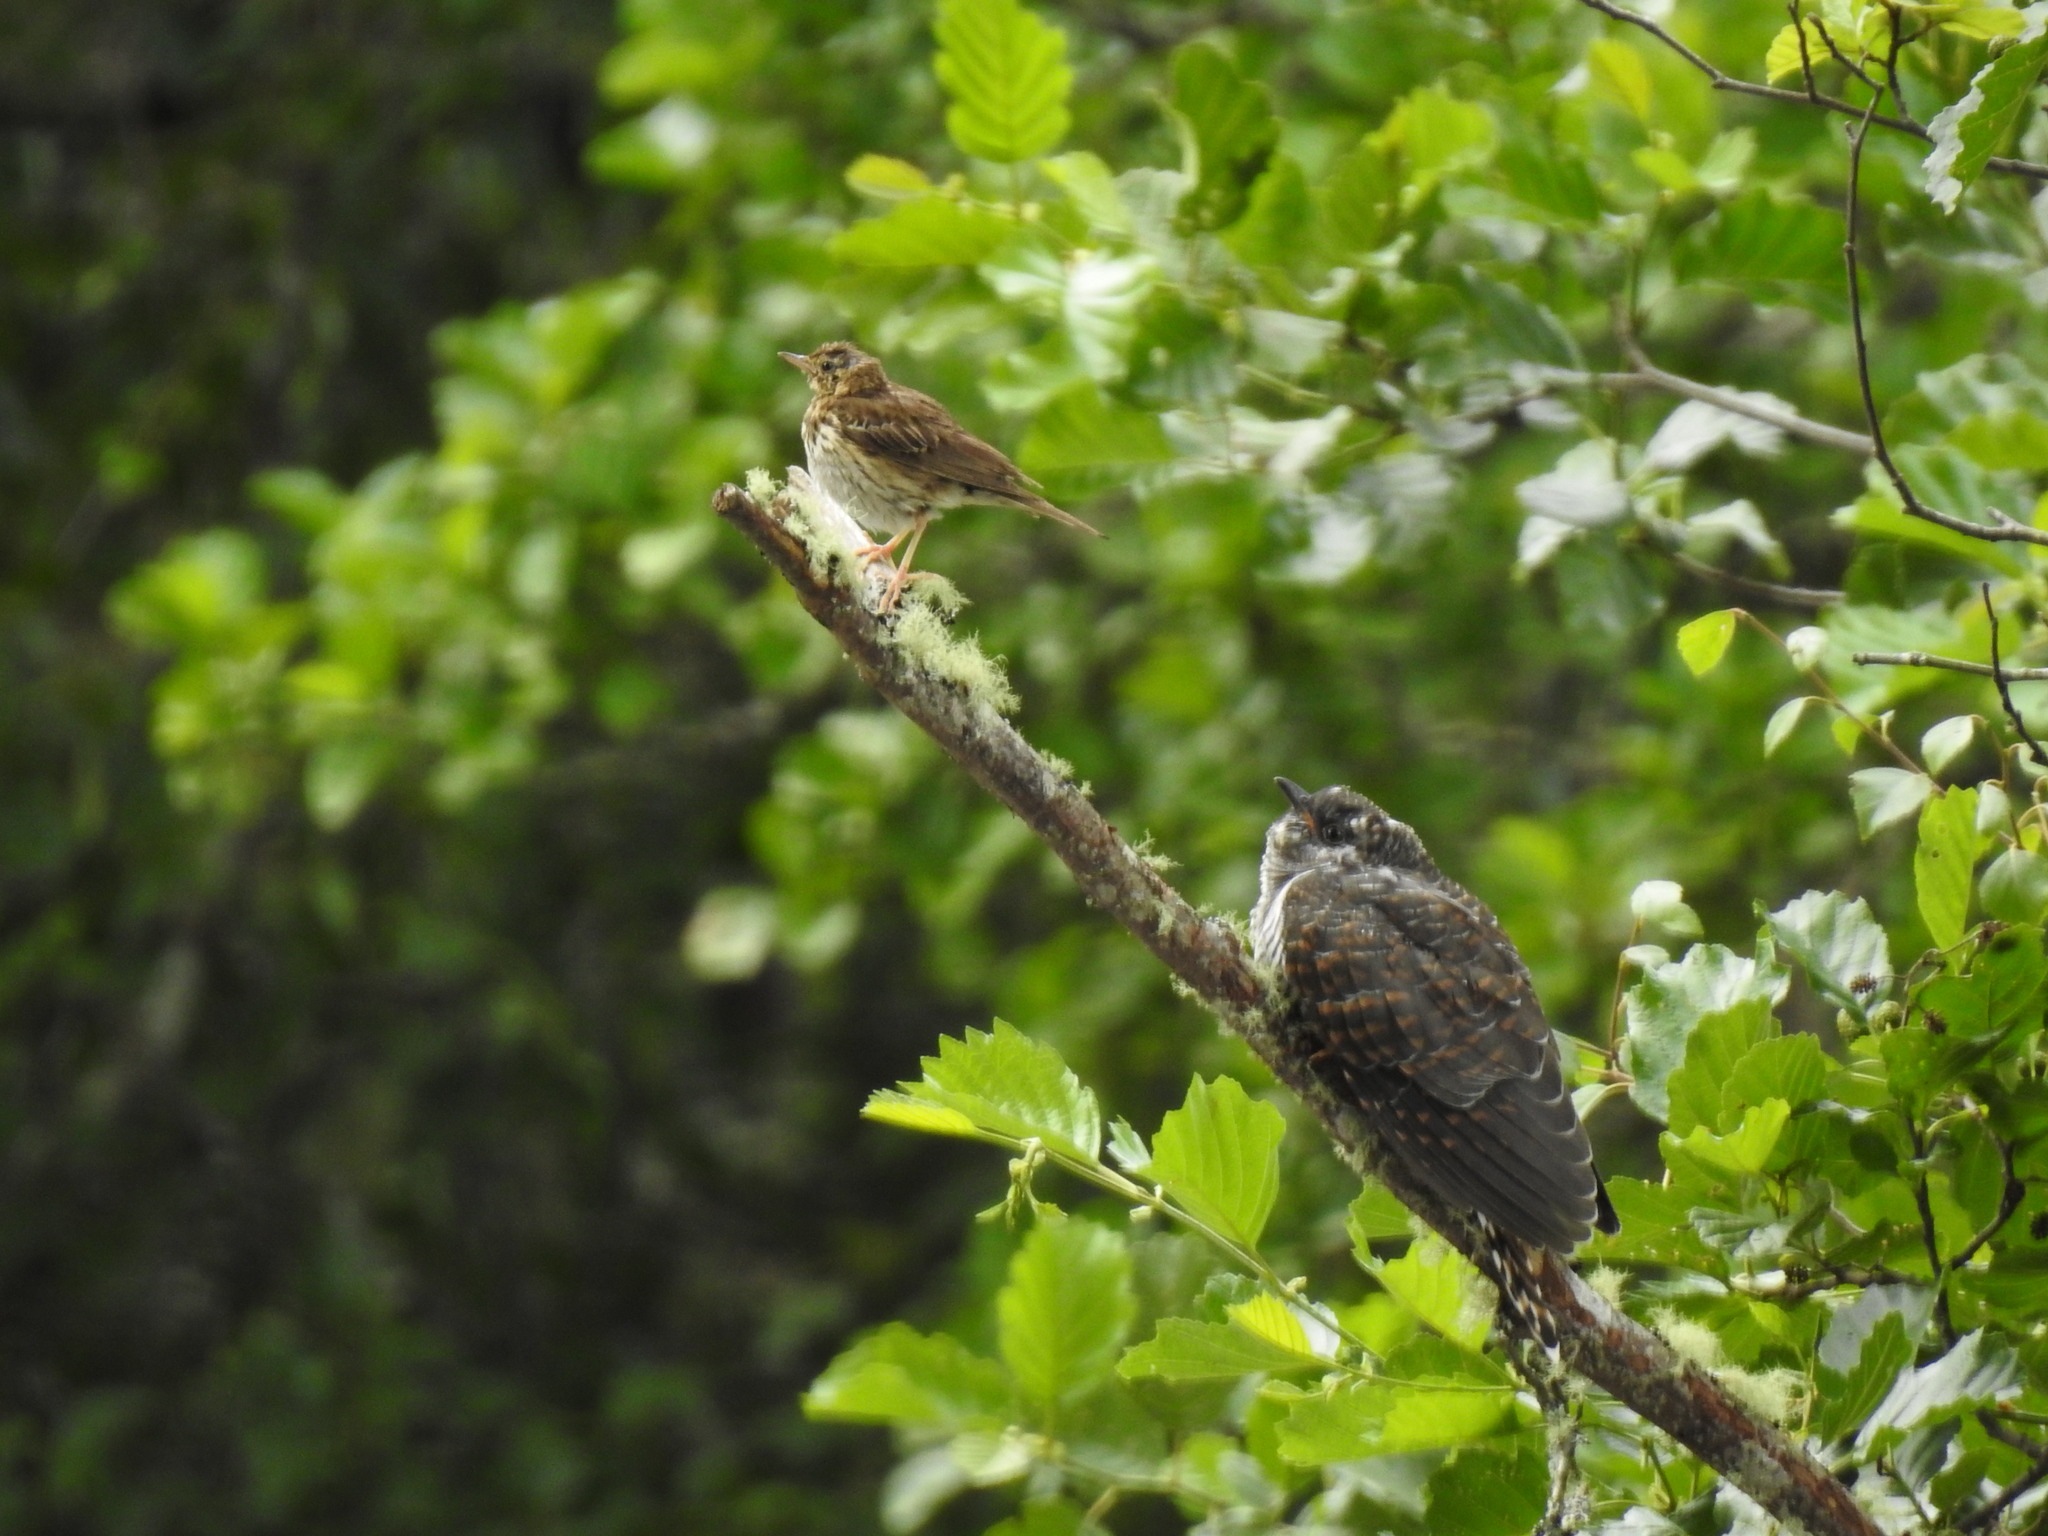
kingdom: Animalia
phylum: Chordata
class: Aves
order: Cuculiformes
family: Cuculidae
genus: Cuculus
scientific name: Cuculus canorus
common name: Common cuckoo
